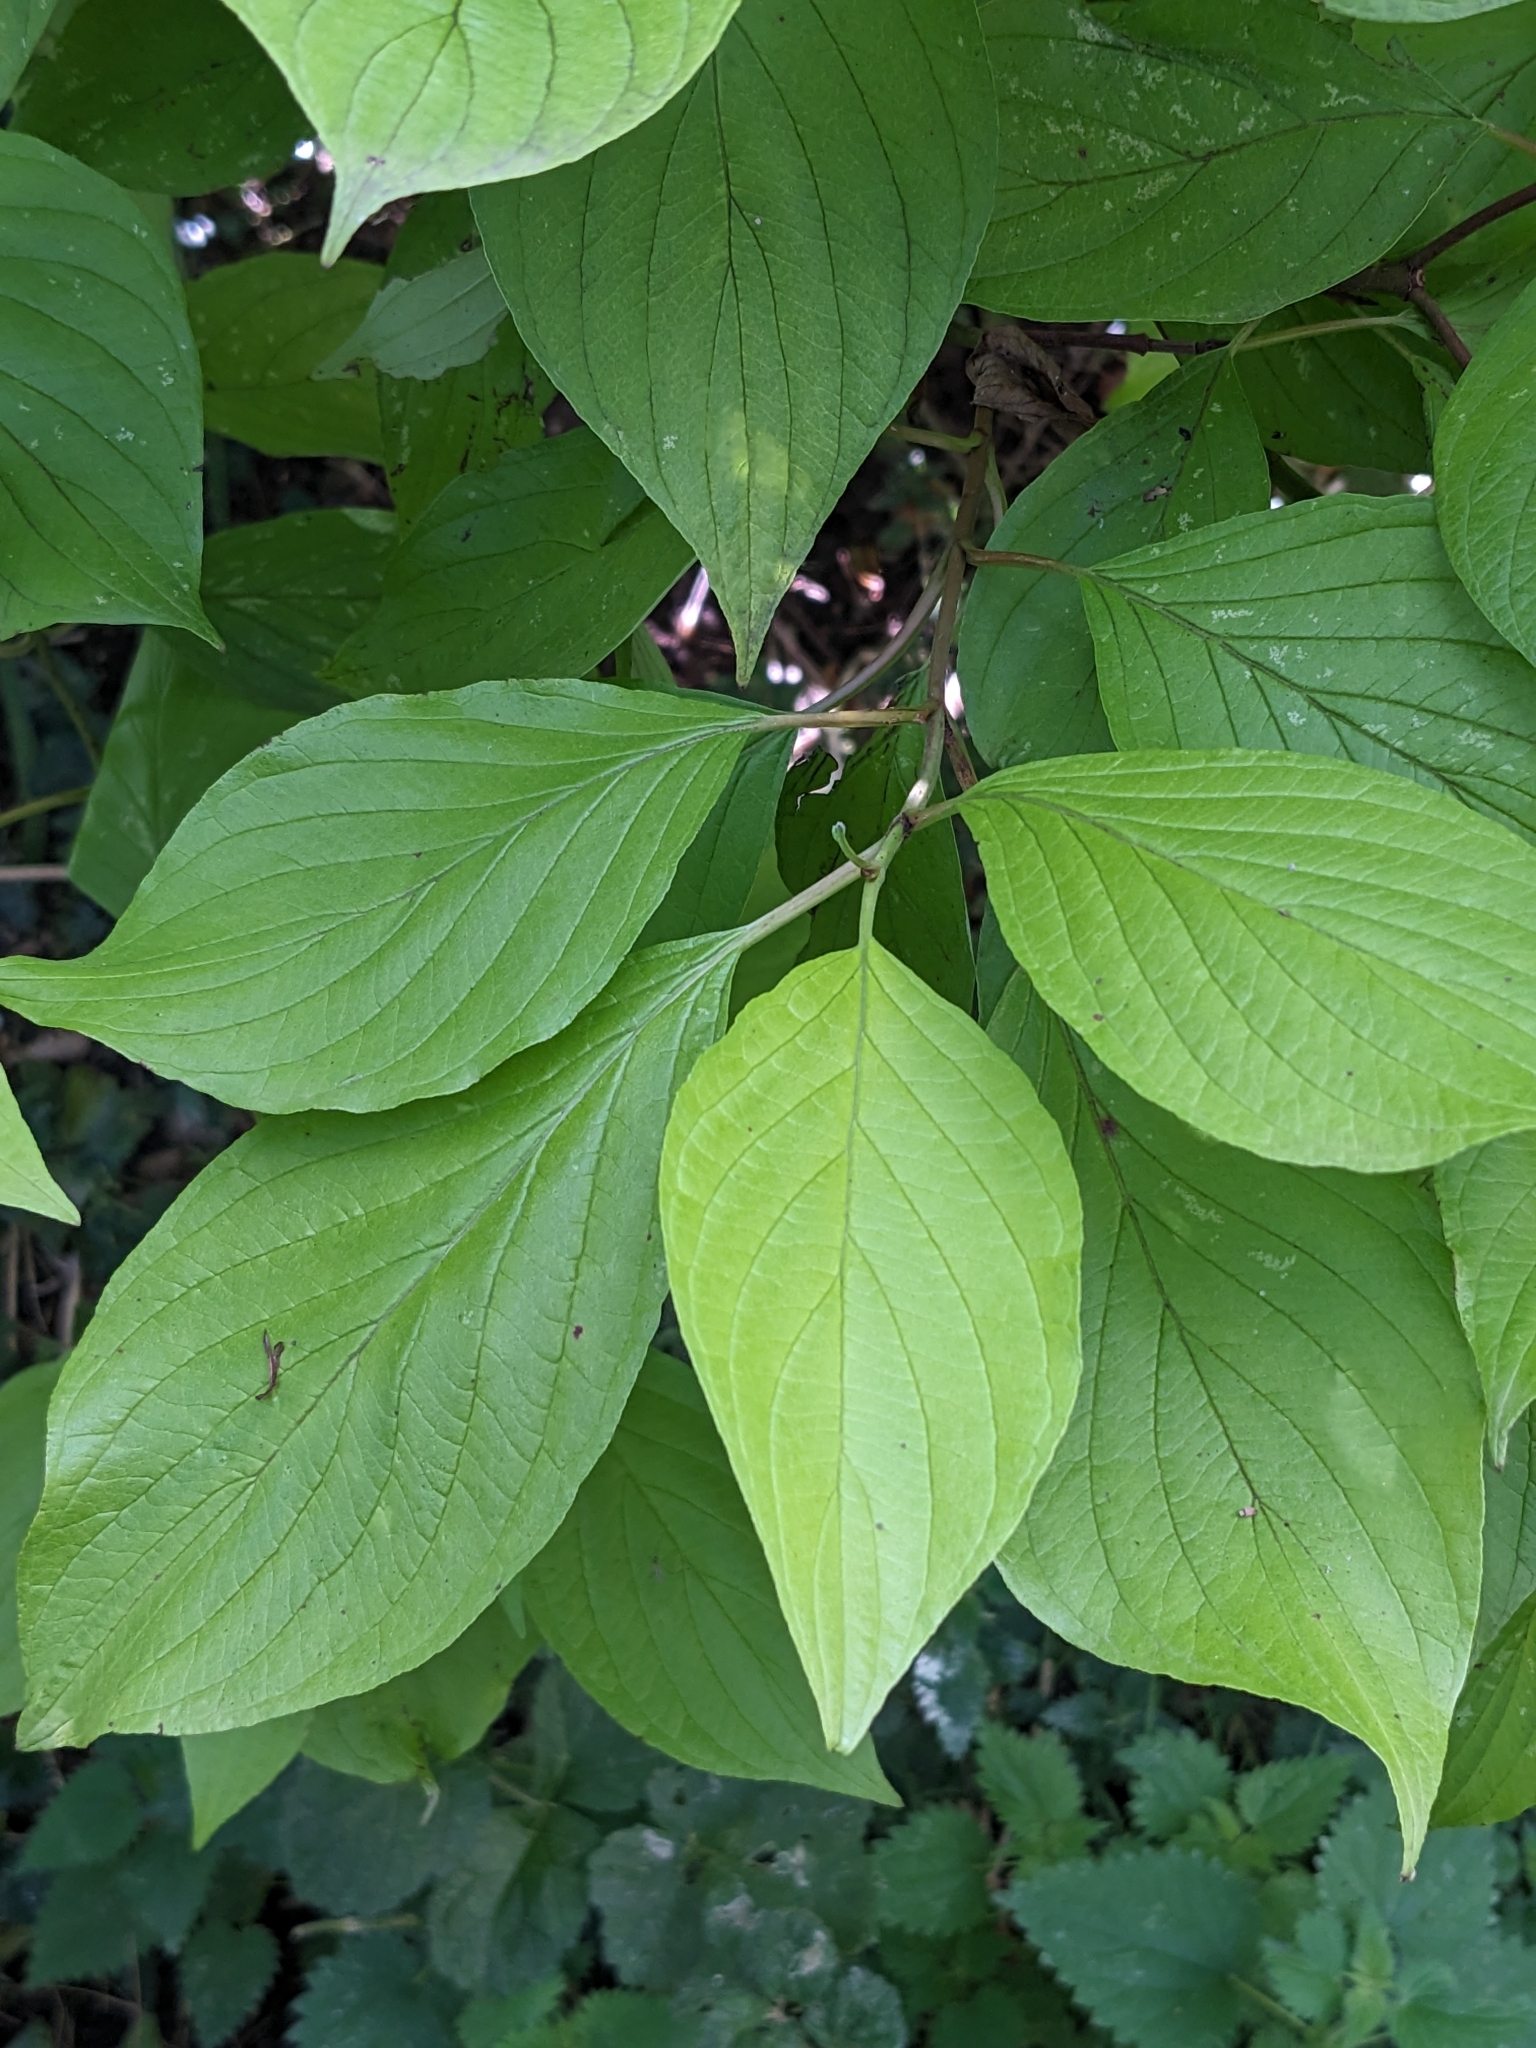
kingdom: Plantae
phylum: Tracheophyta
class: Magnoliopsida
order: Cornales
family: Cornaceae
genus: Cornus
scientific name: Cornus alba
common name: White dogwood
